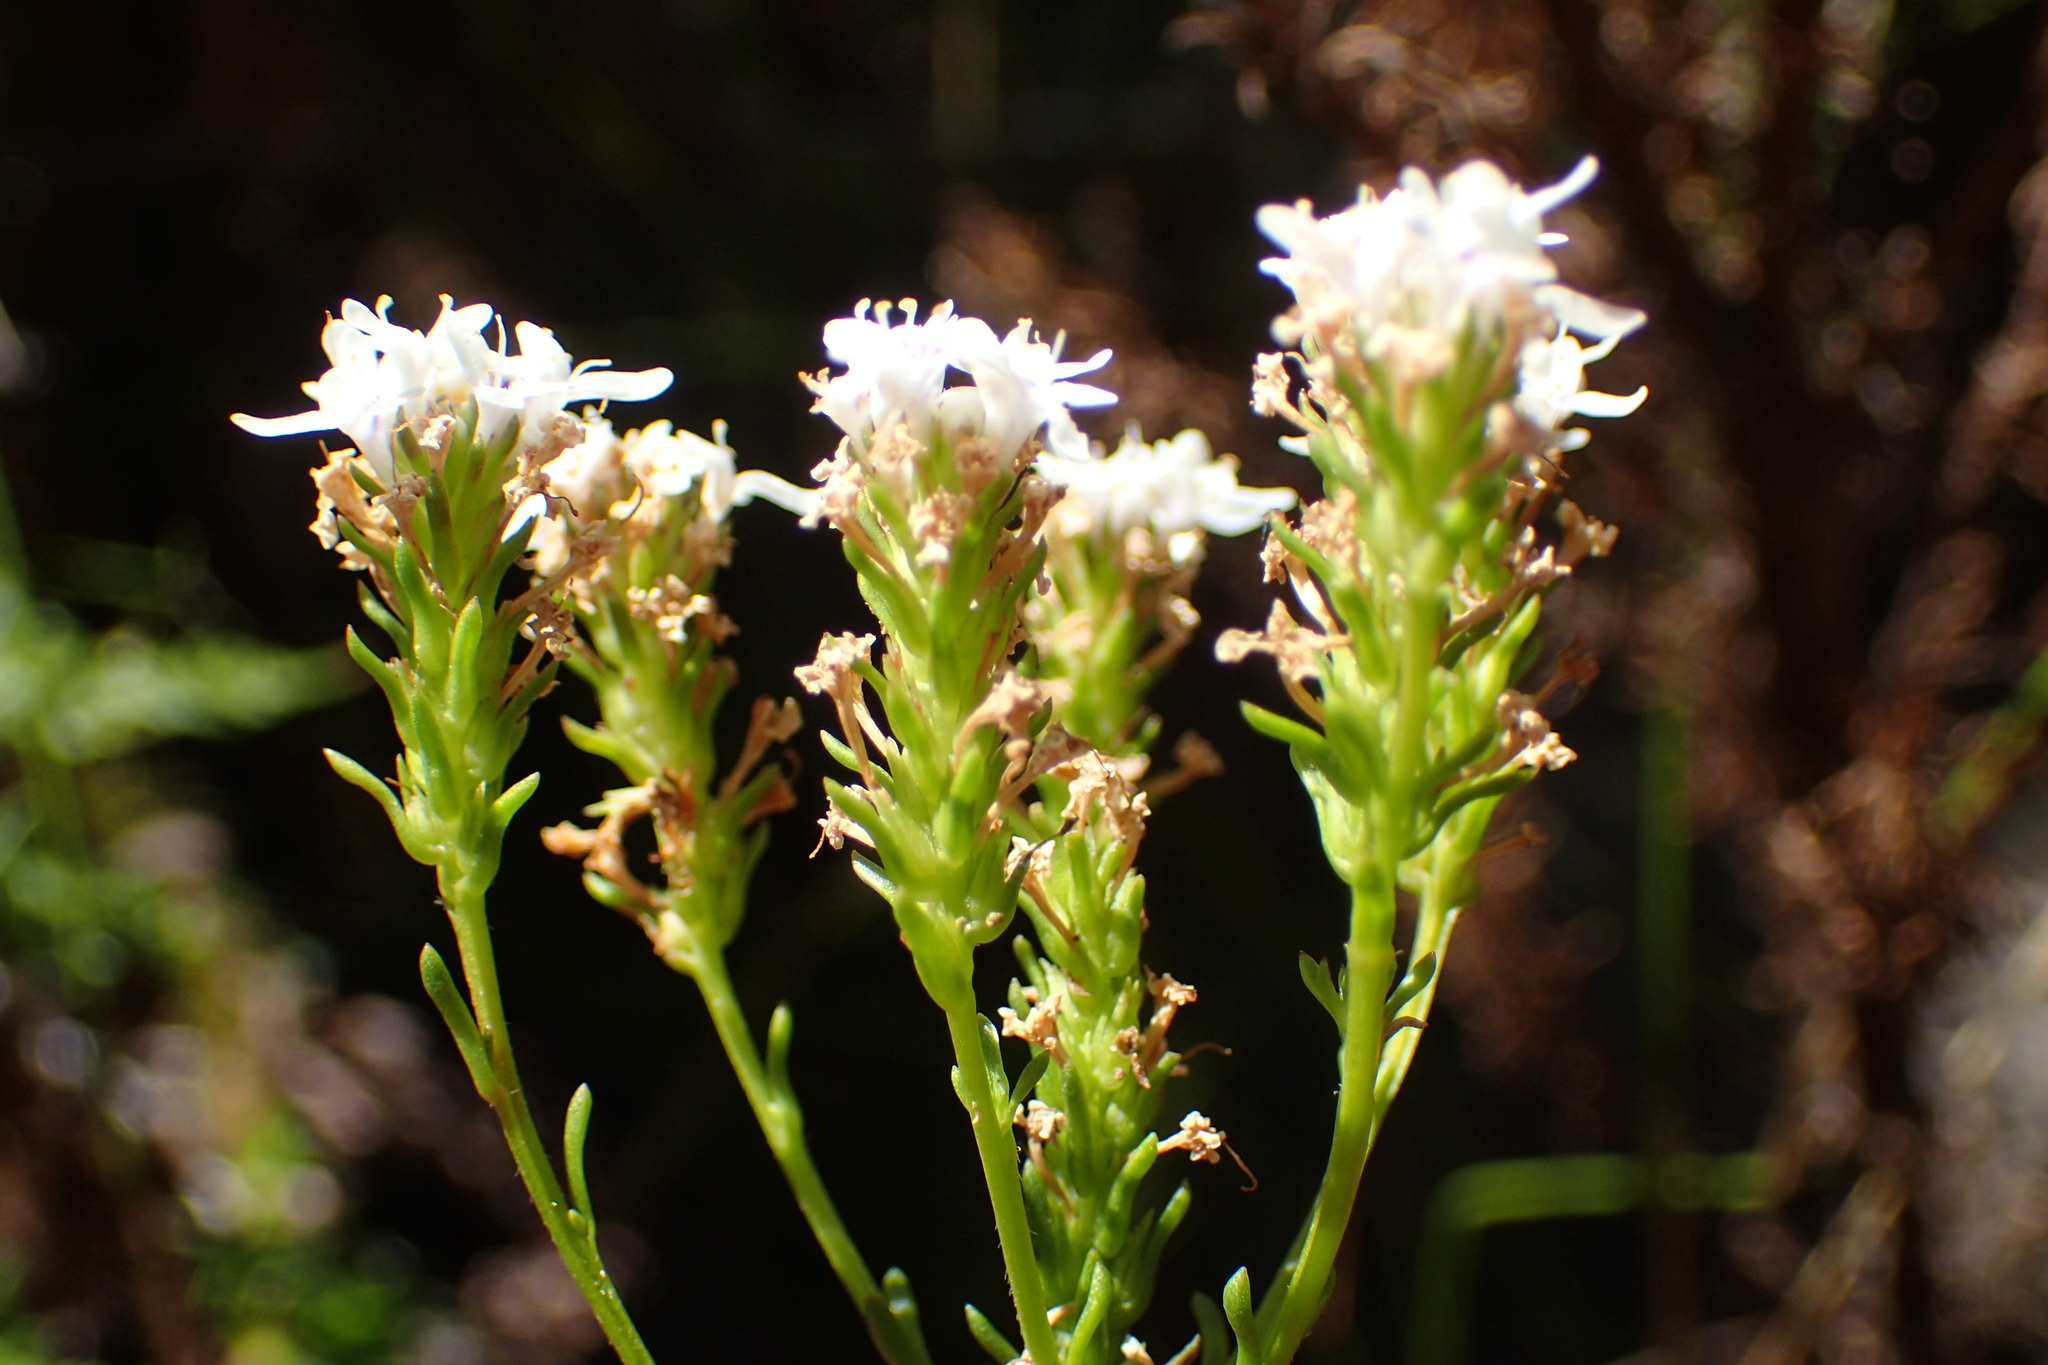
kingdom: Plantae
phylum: Tracheophyta
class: Magnoliopsida
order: Lamiales
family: Scrophulariaceae
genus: Pseudoselago
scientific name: Pseudoselago outeniquensis
